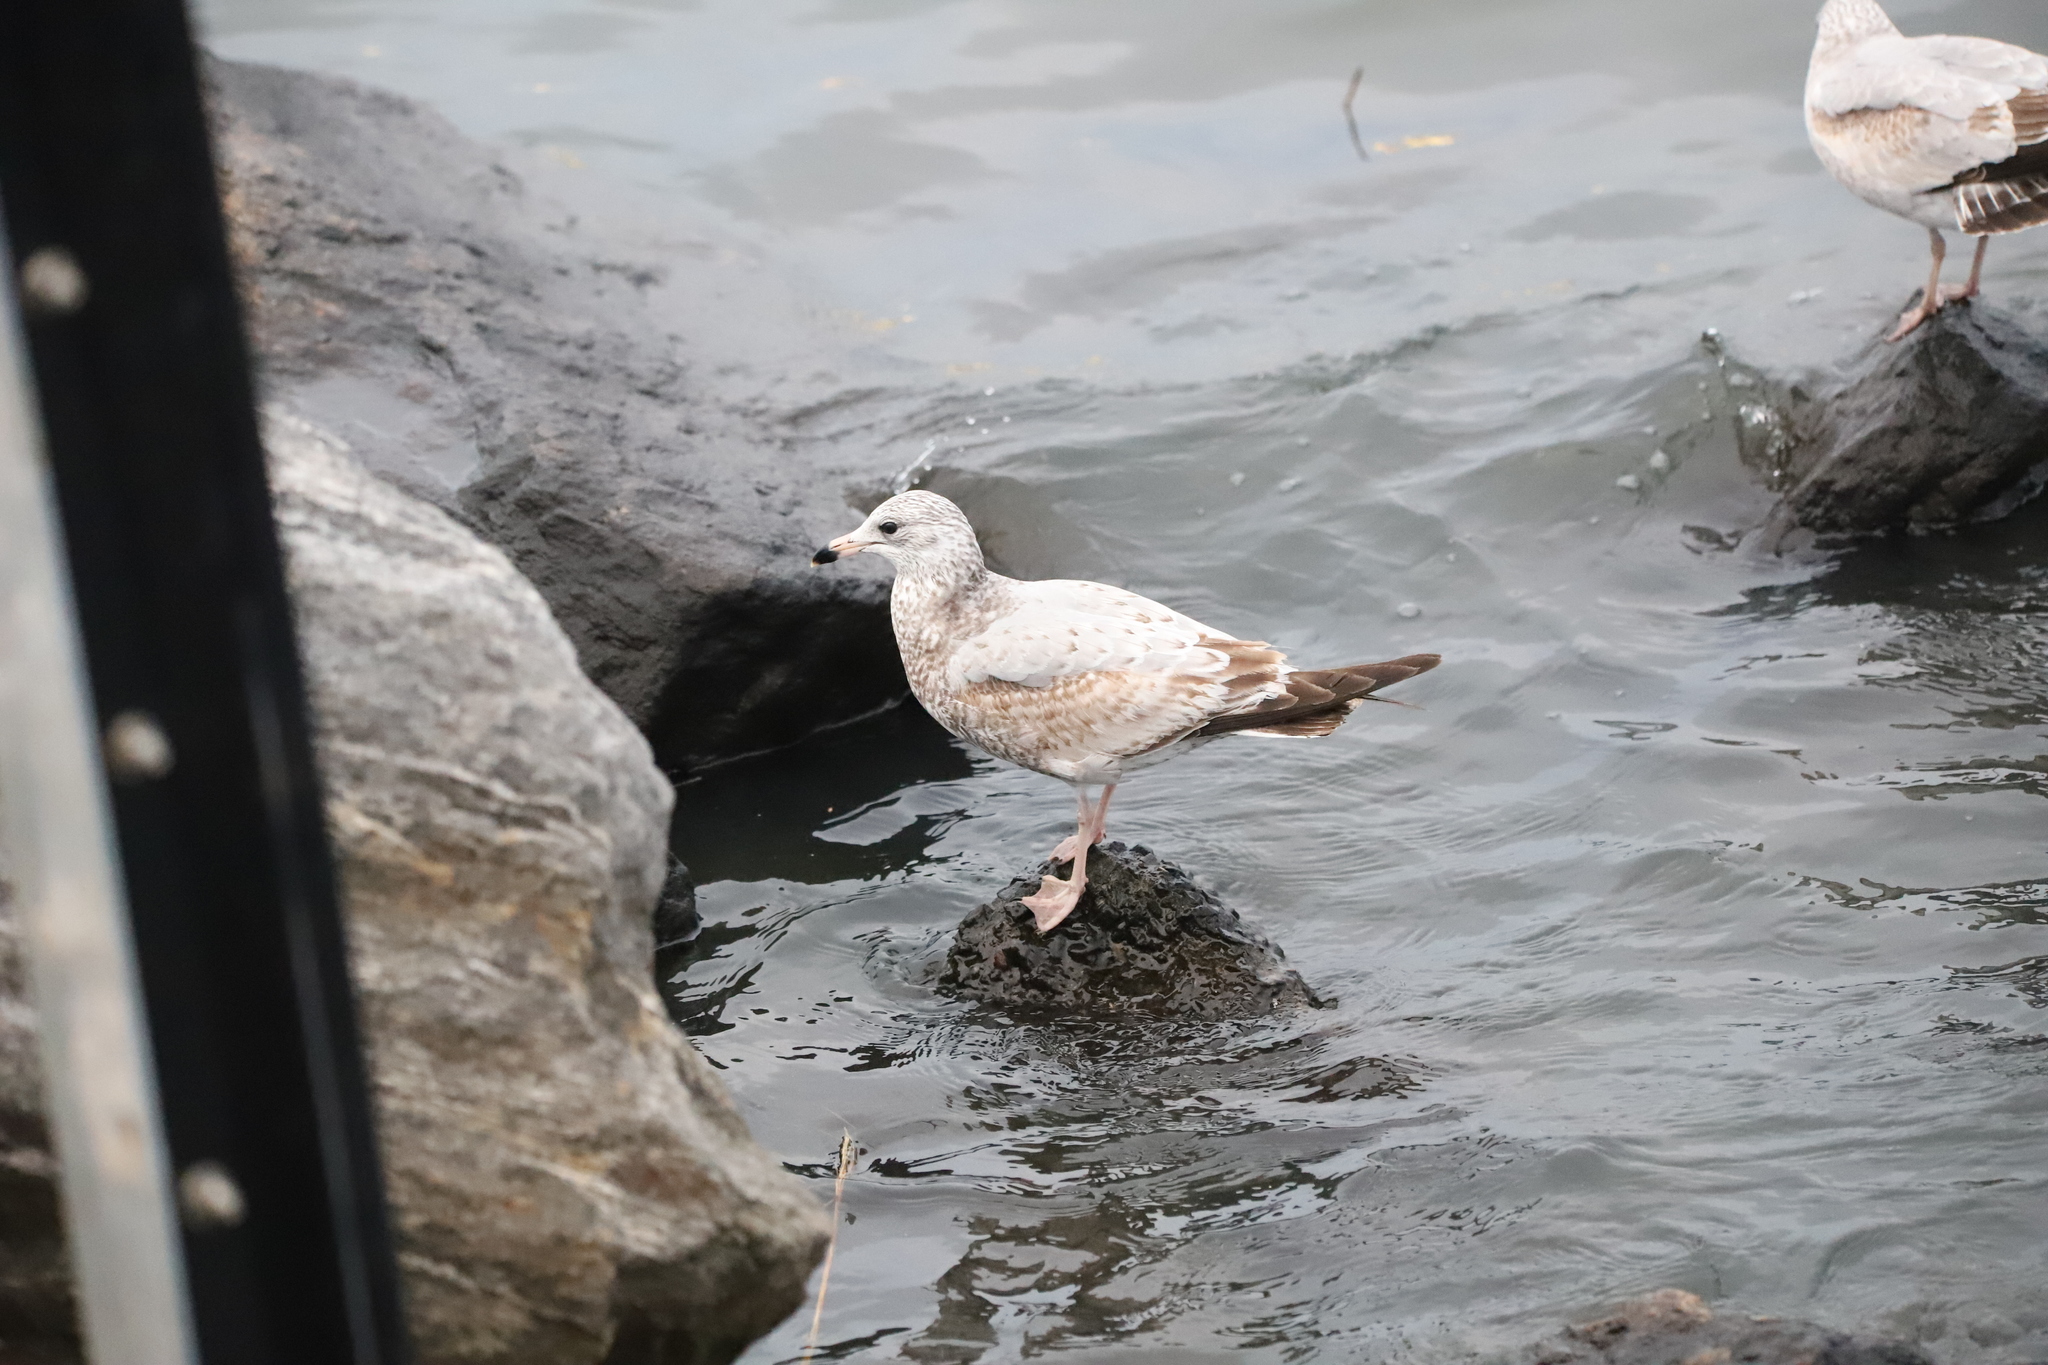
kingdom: Animalia
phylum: Chordata
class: Aves
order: Charadriiformes
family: Laridae
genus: Larus
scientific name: Larus delawarensis
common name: Ring-billed gull
